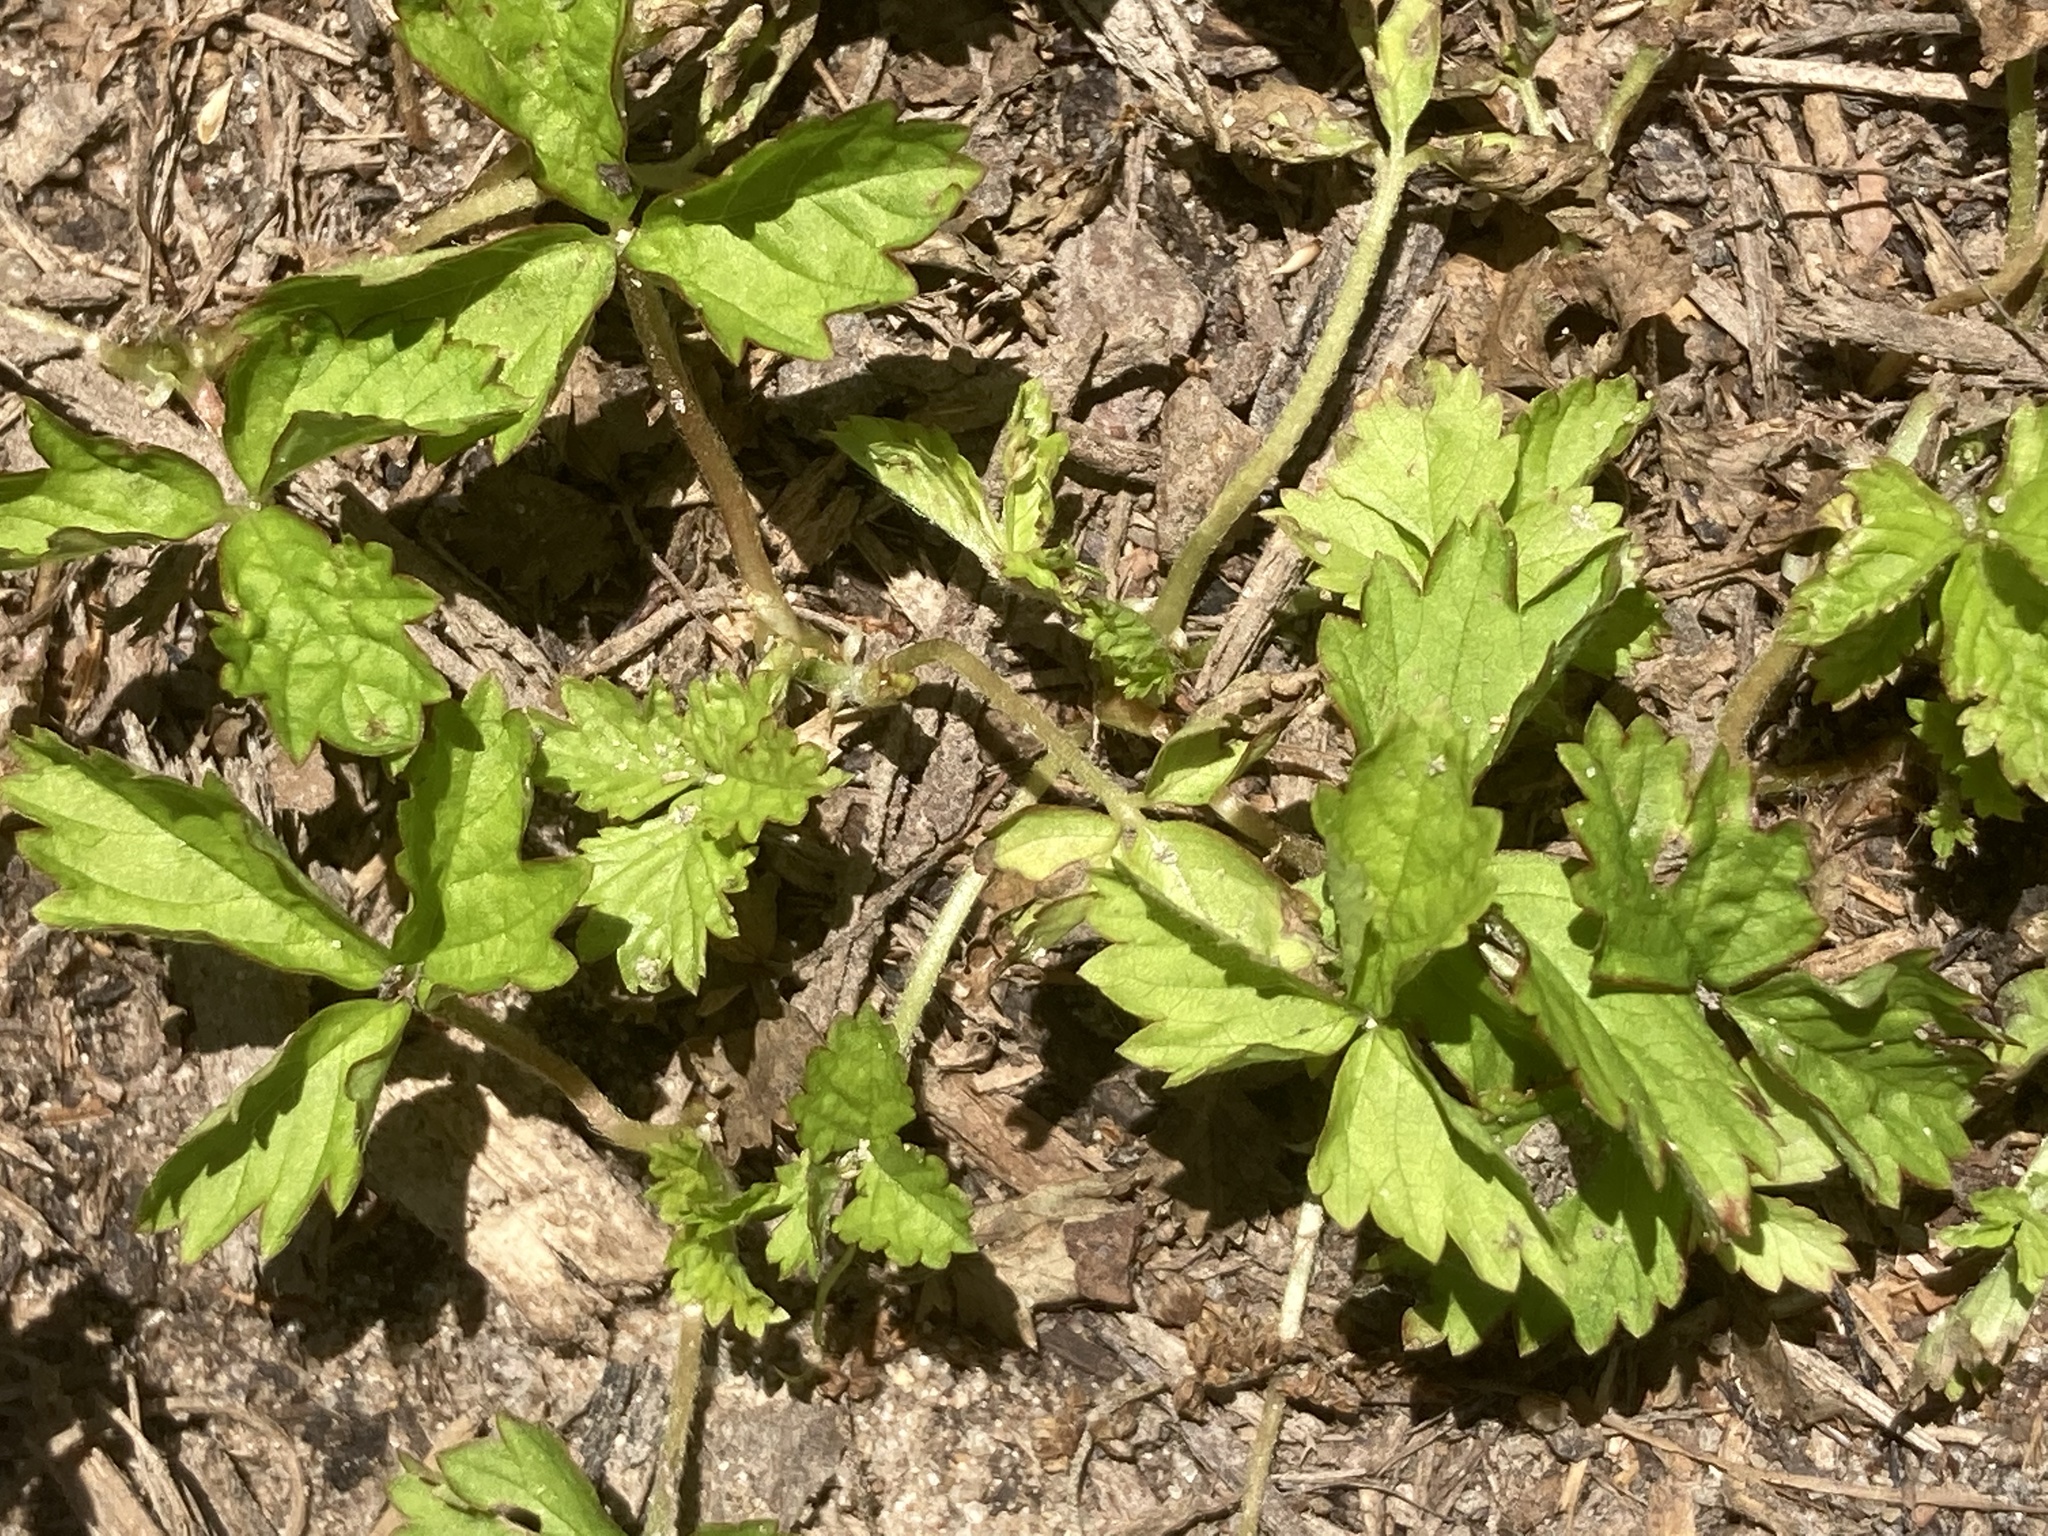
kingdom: Plantae
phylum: Tracheophyta
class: Magnoliopsida
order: Rosales
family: Rosaceae
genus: Potentilla
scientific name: Potentilla indica
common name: Yellow-flowered strawberry
